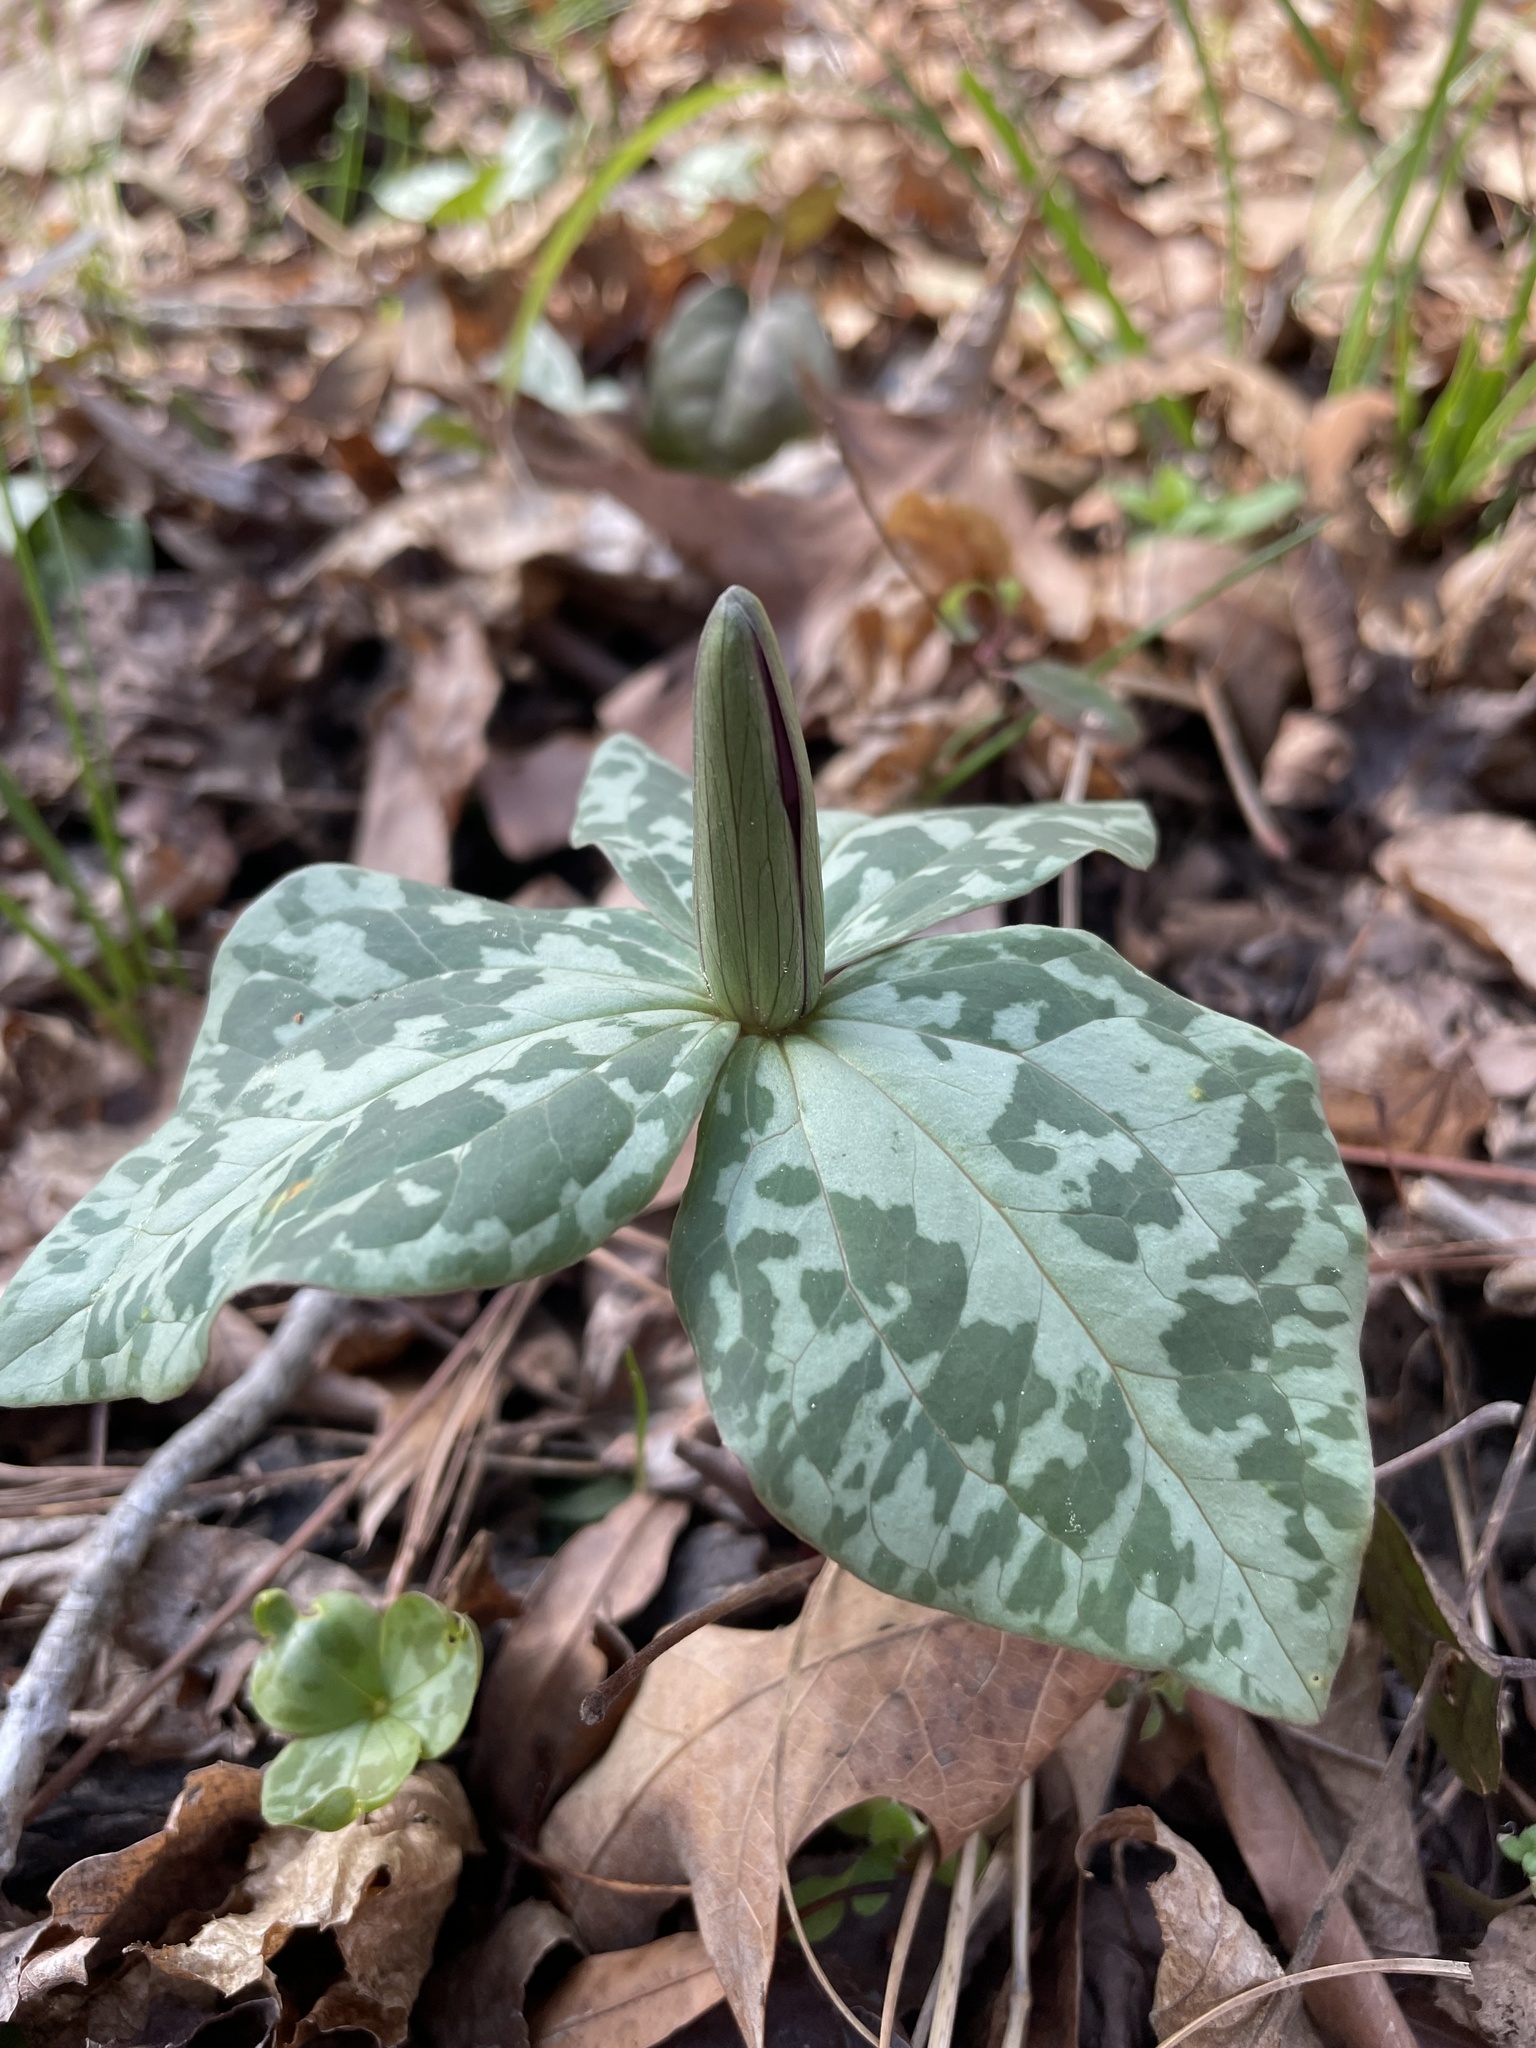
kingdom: Plantae
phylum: Tracheophyta
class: Liliopsida
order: Liliales
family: Melanthiaceae
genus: Trillium
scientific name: Trillium cuneatum
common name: Cuneate trillium
